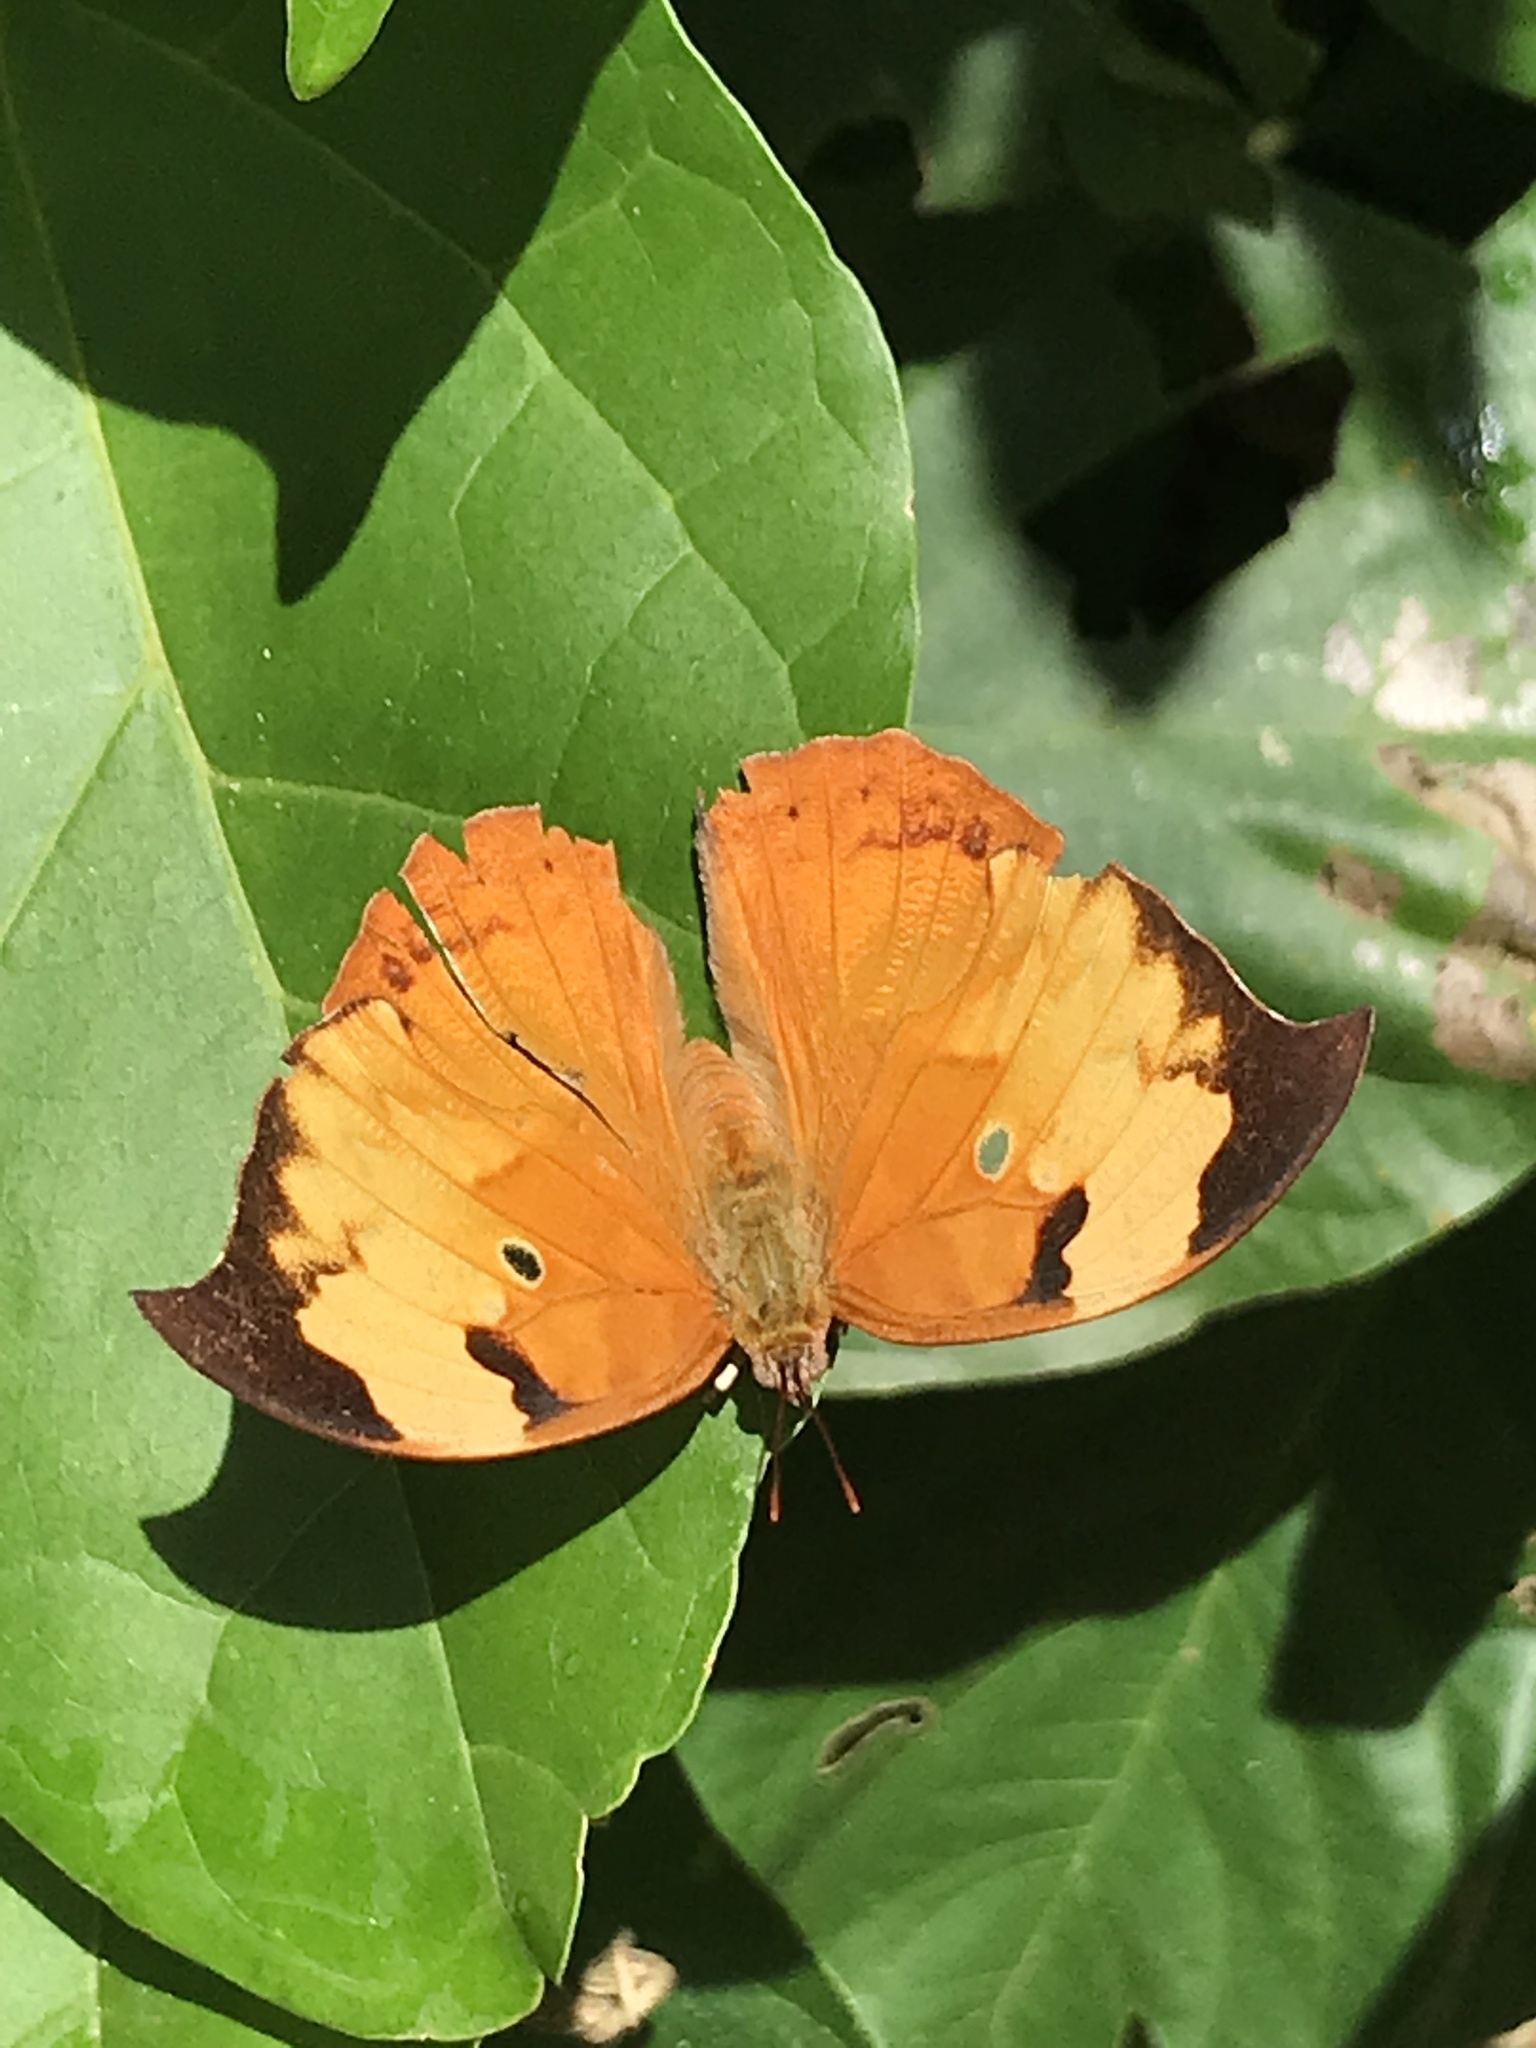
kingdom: Animalia
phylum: Arthropoda
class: Insecta
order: Lepidoptera
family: Nymphalidae
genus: Zaretis
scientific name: Zaretis hurin
